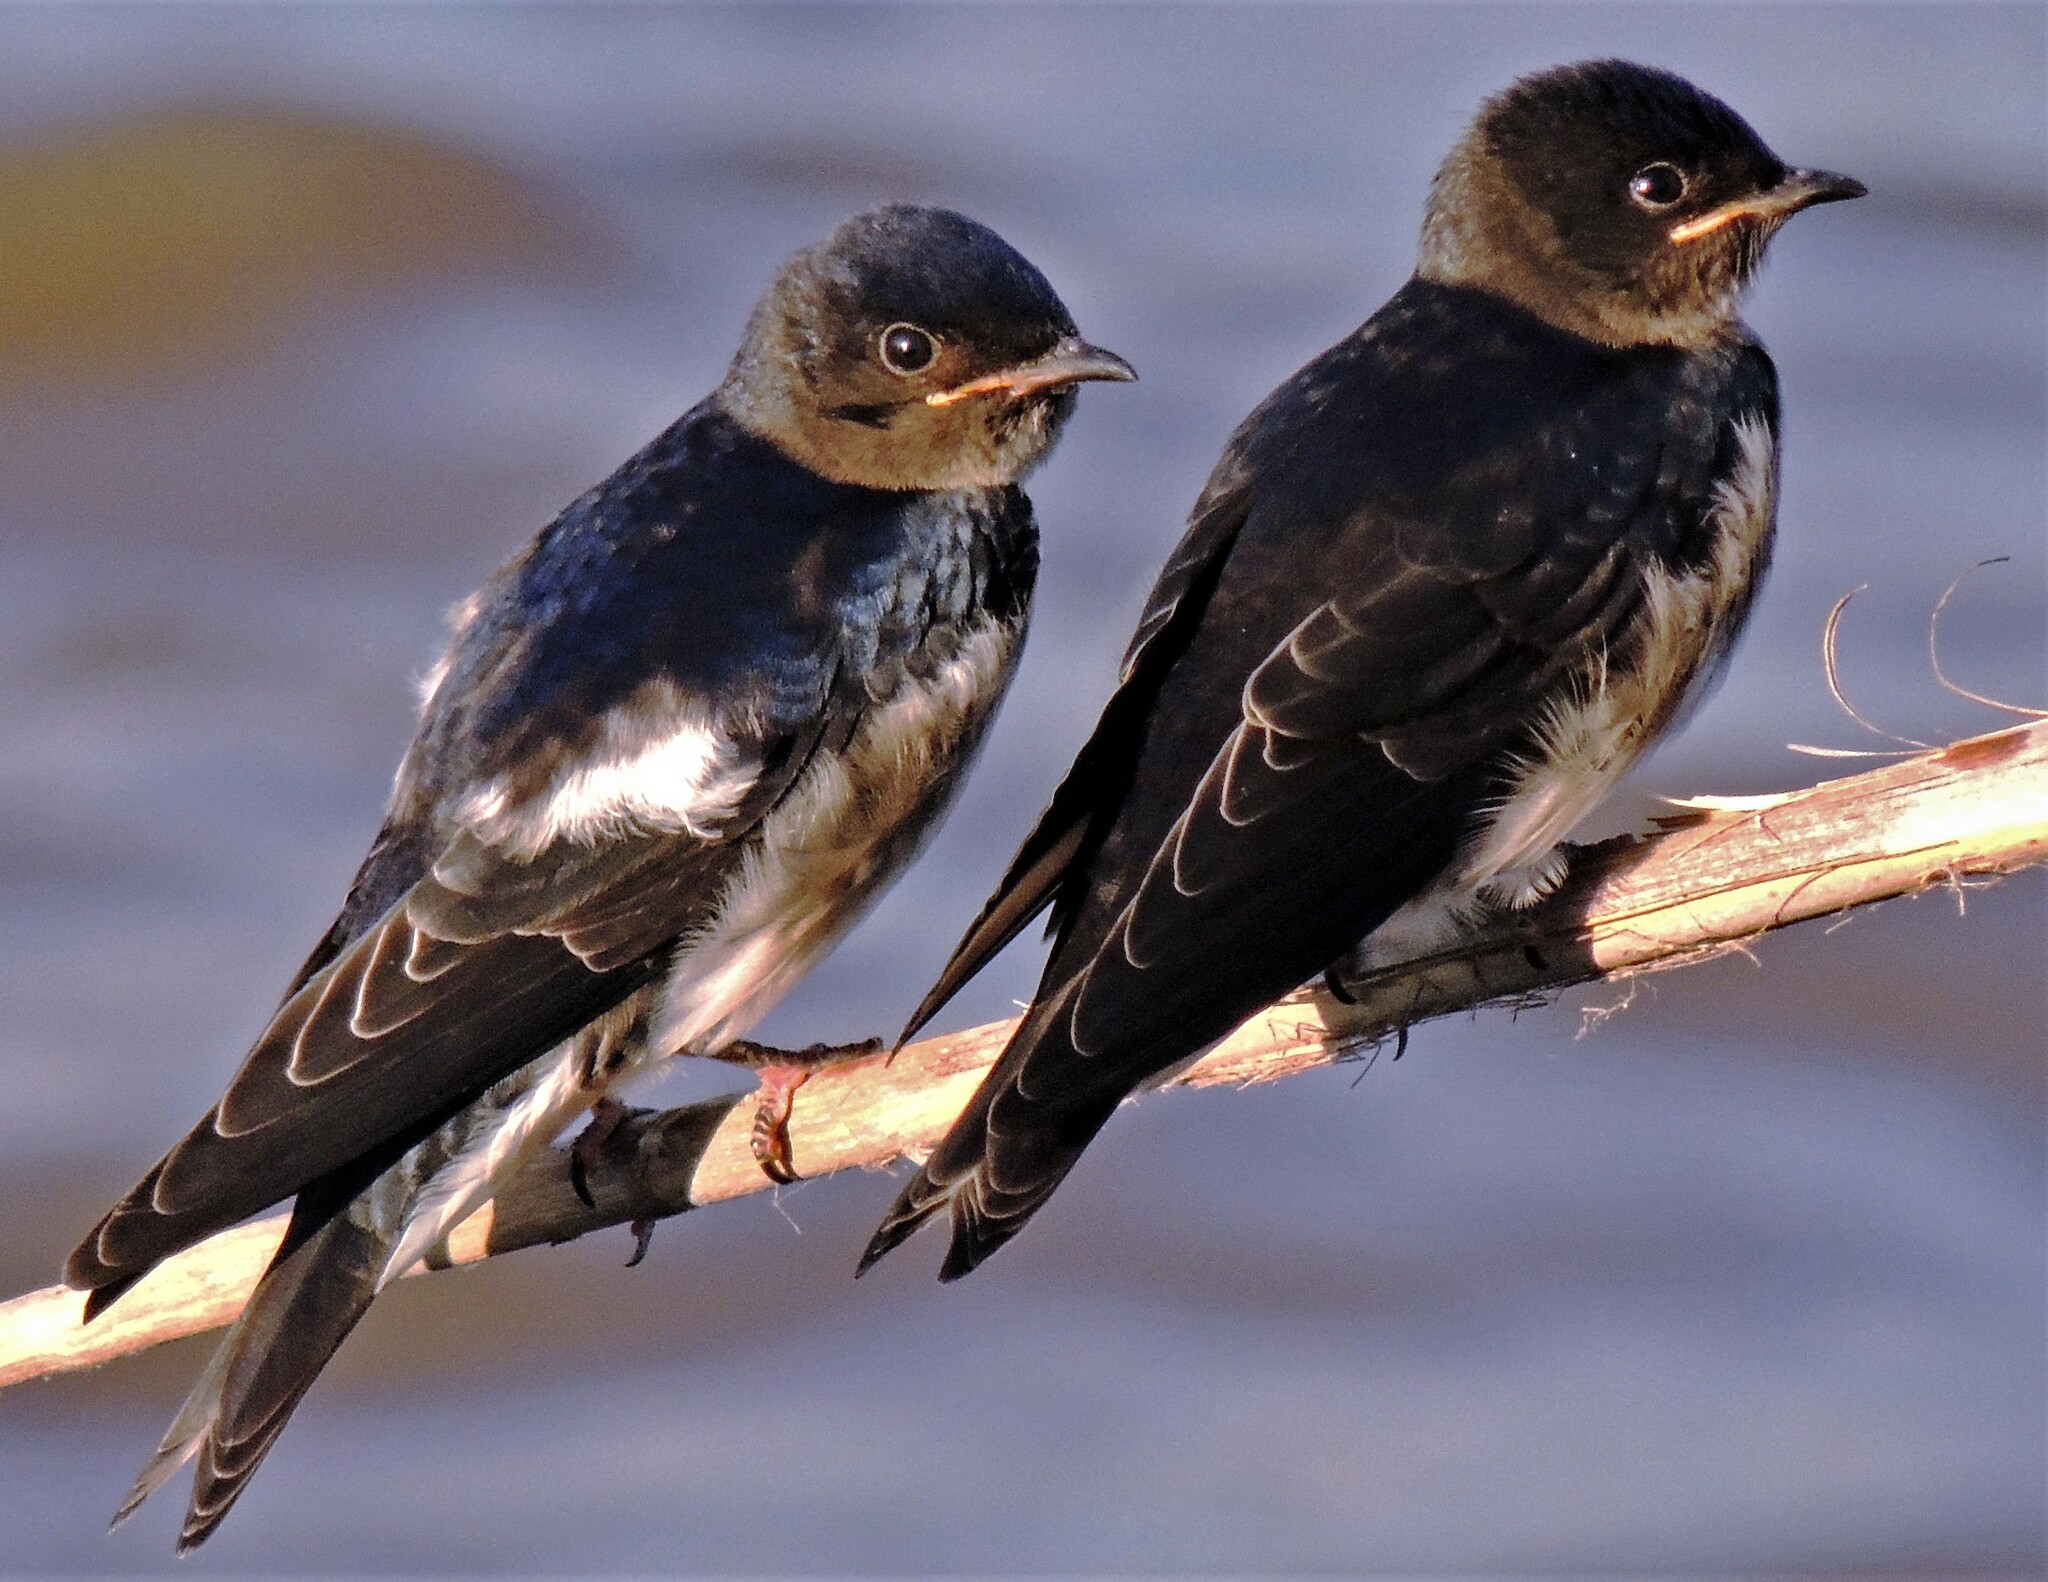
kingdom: Animalia
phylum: Chordata
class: Aves
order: Passeriformes
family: Hirundinidae
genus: Progne
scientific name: Progne chalybea
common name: Grey-breasted martin
